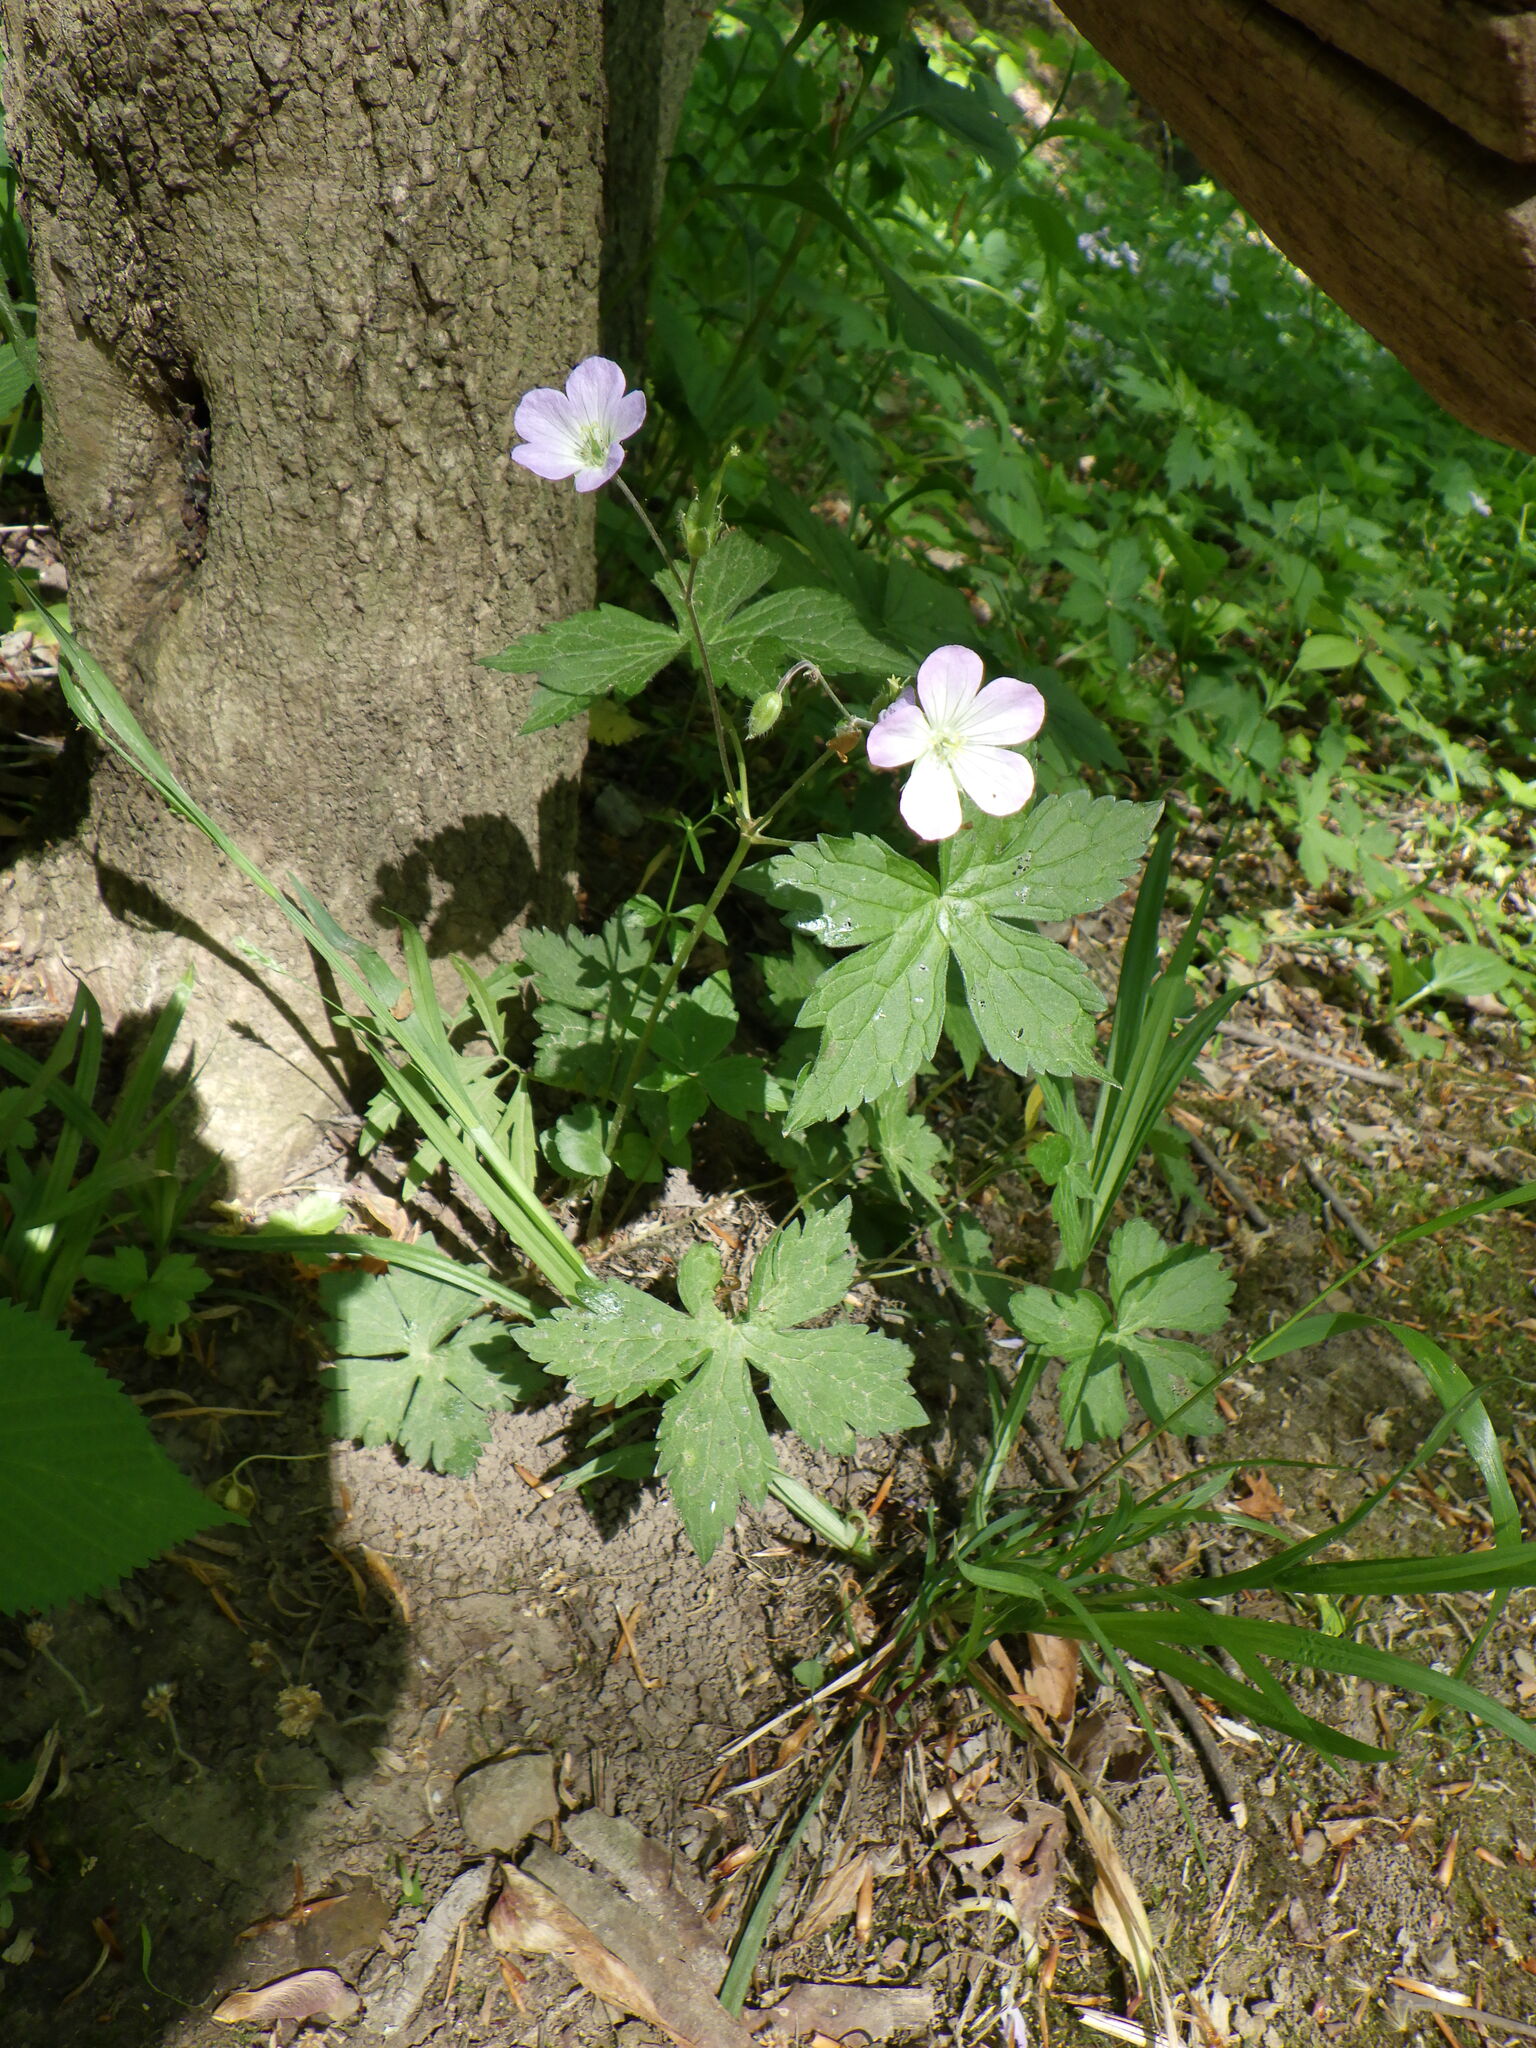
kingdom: Plantae
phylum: Tracheophyta
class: Magnoliopsida
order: Geraniales
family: Geraniaceae
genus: Geranium
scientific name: Geranium maculatum
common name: Spotted geranium
